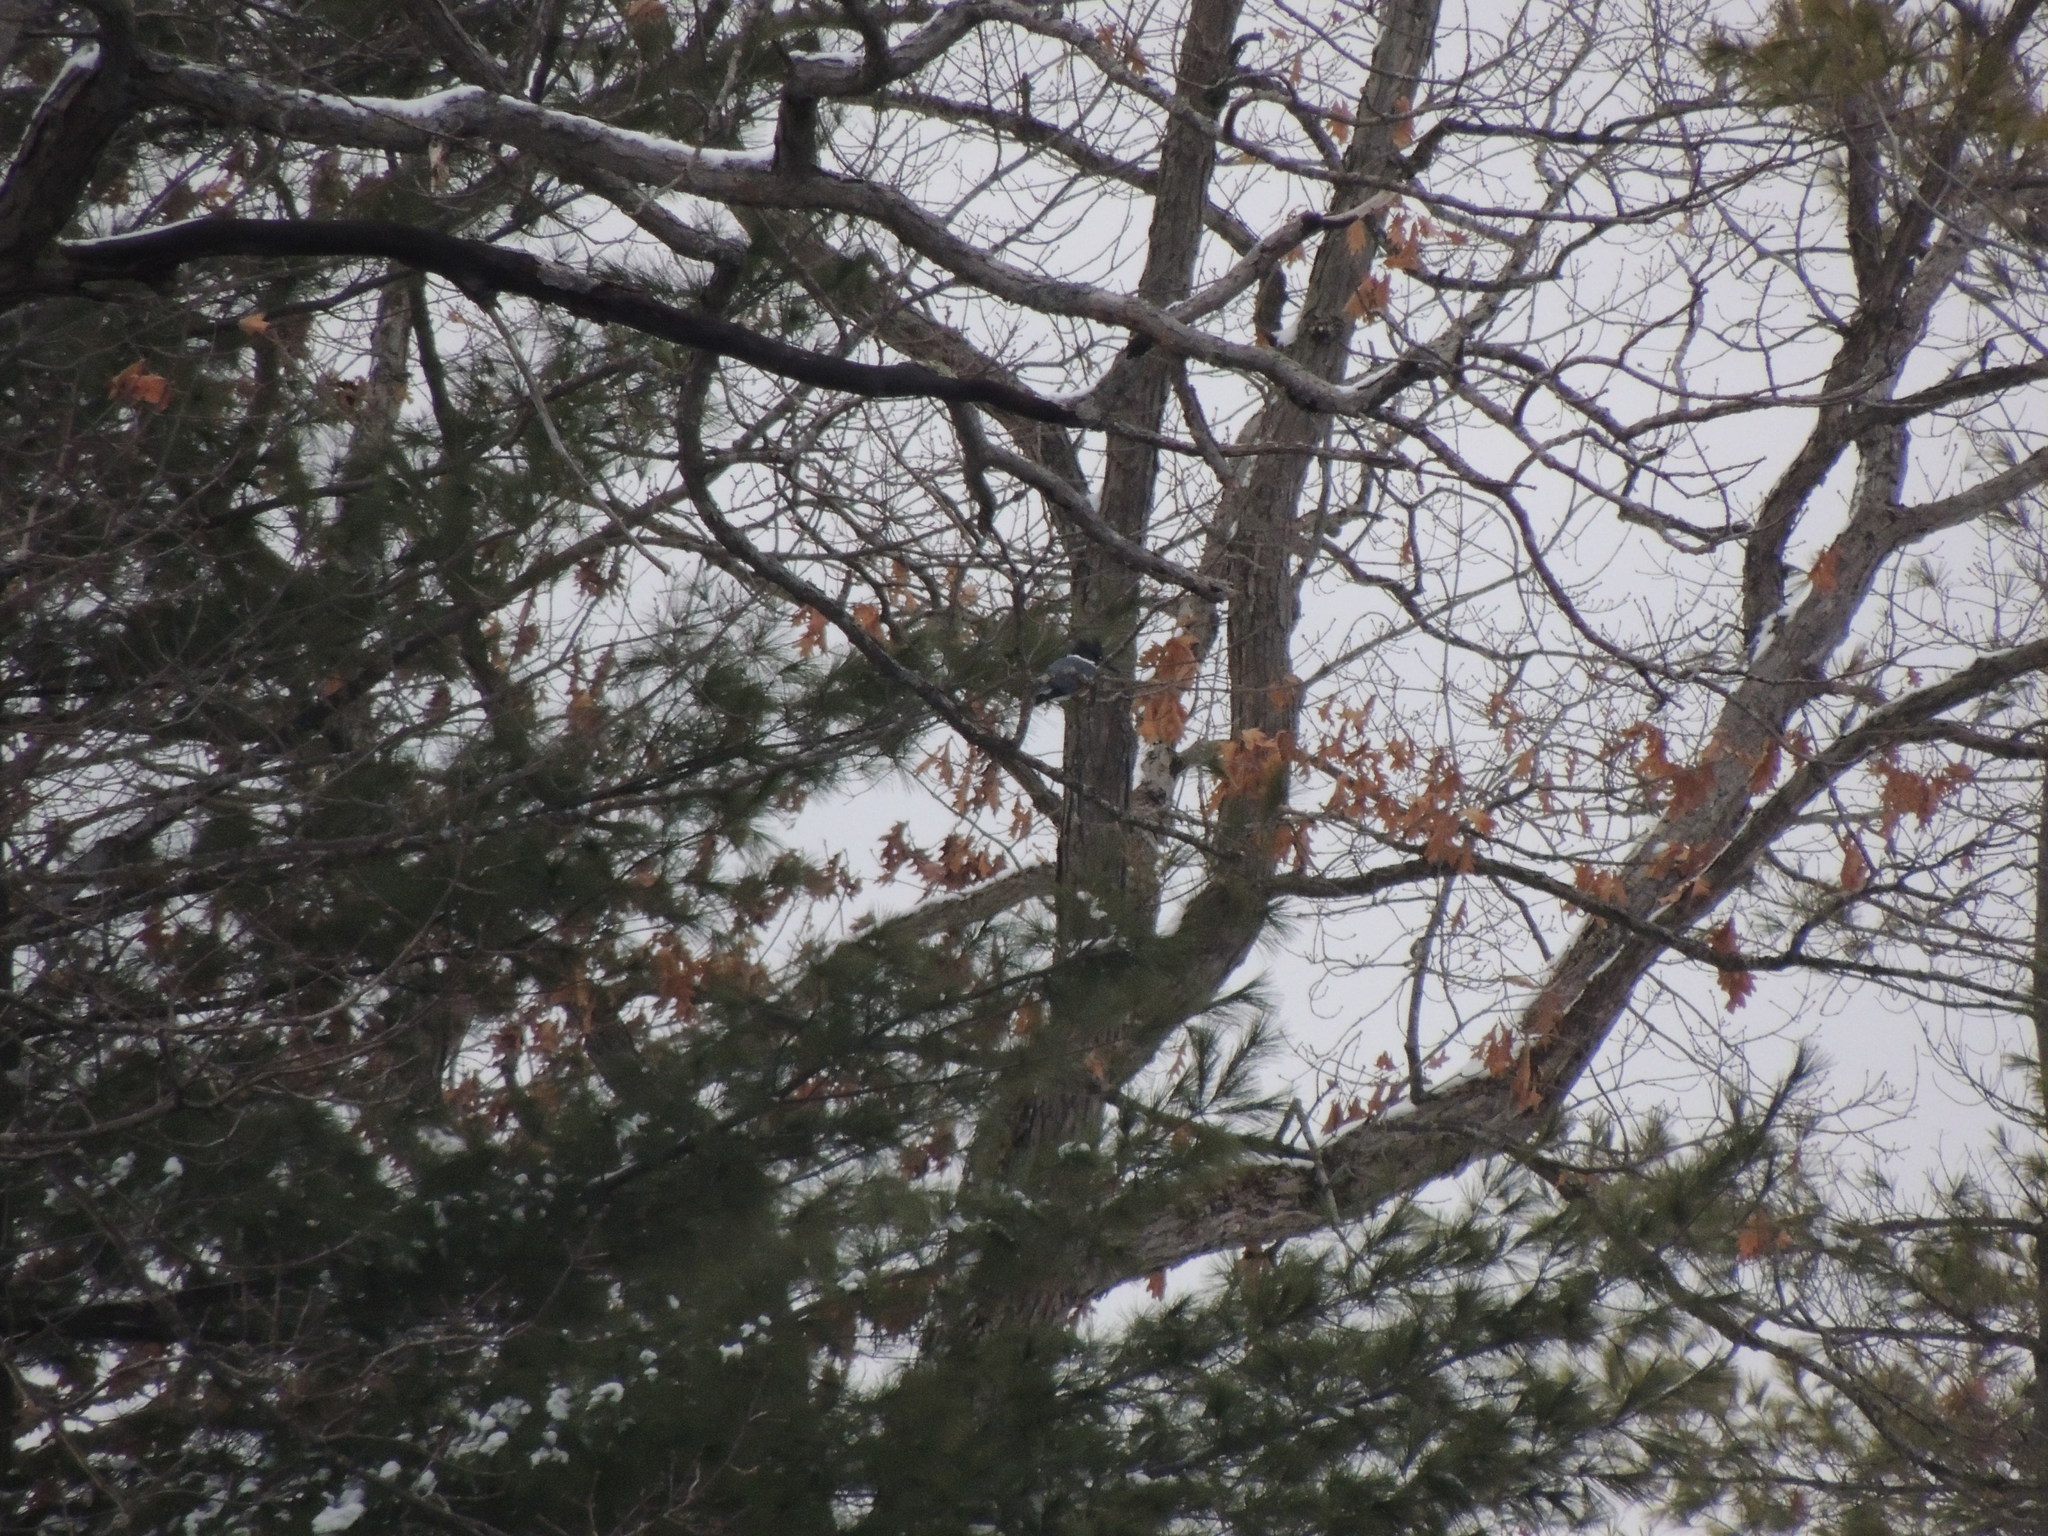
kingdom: Animalia
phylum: Chordata
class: Aves
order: Coraciiformes
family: Alcedinidae
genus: Megaceryle
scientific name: Megaceryle alcyon
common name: Belted kingfisher
